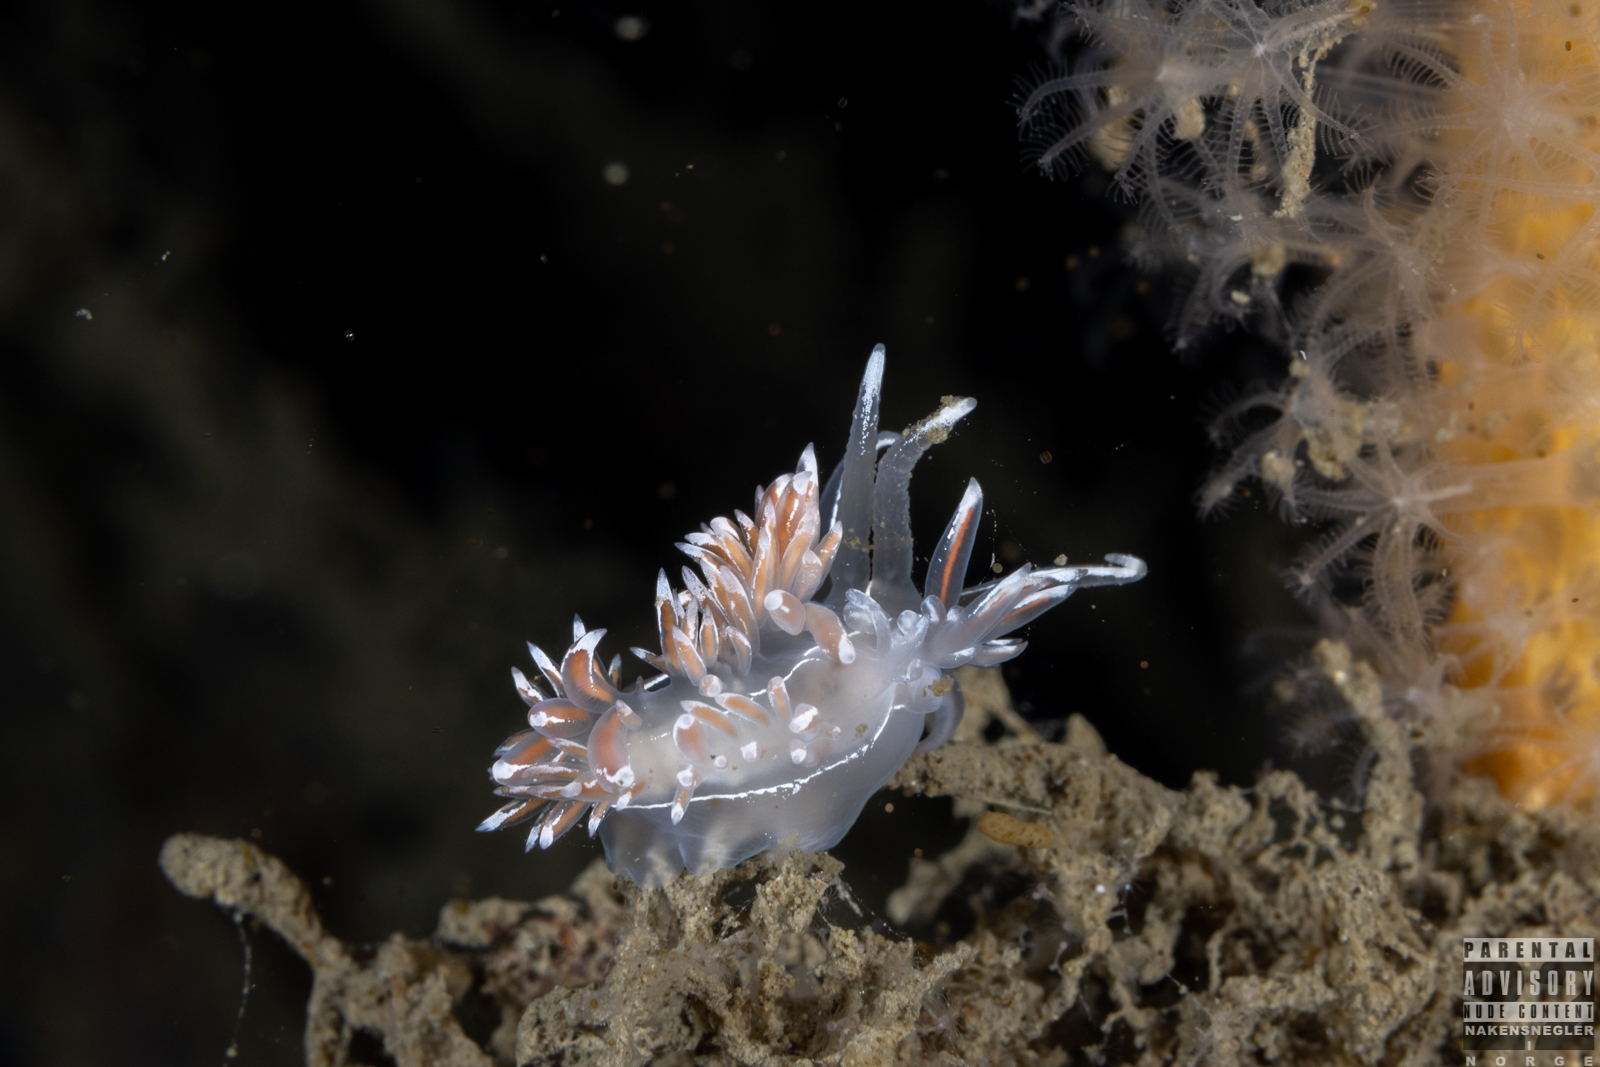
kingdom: Animalia
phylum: Mollusca
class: Gastropoda
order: Nudibranchia
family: Coryphellidae
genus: Coryphella
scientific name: Coryphella lineata
